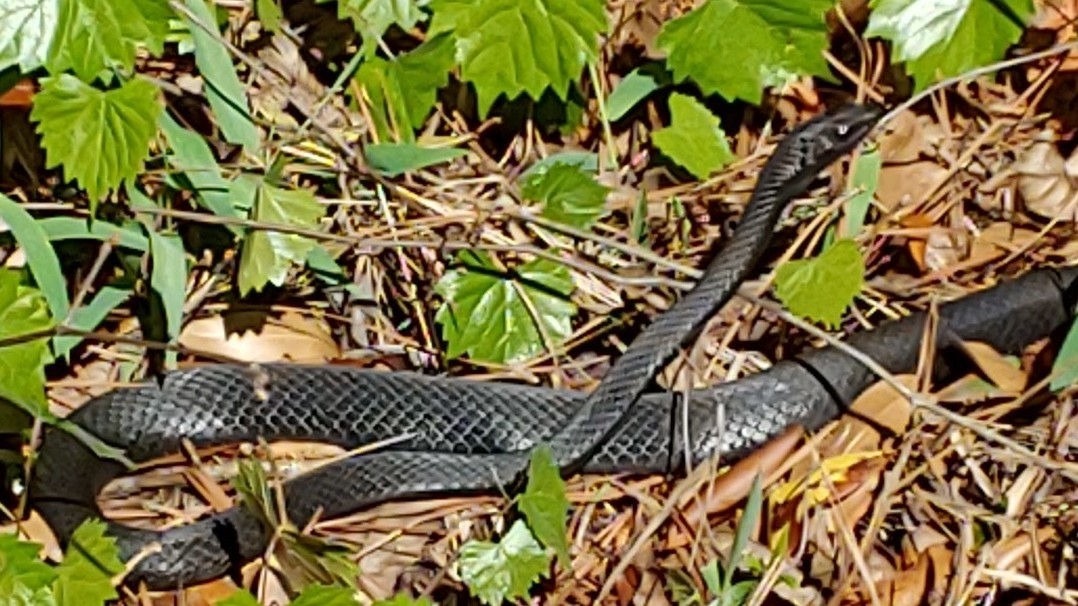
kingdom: Animalia
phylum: Chordata
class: Squamata
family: Colubridae
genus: Coluber
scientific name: Coluber constrictor
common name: Eastern racer
